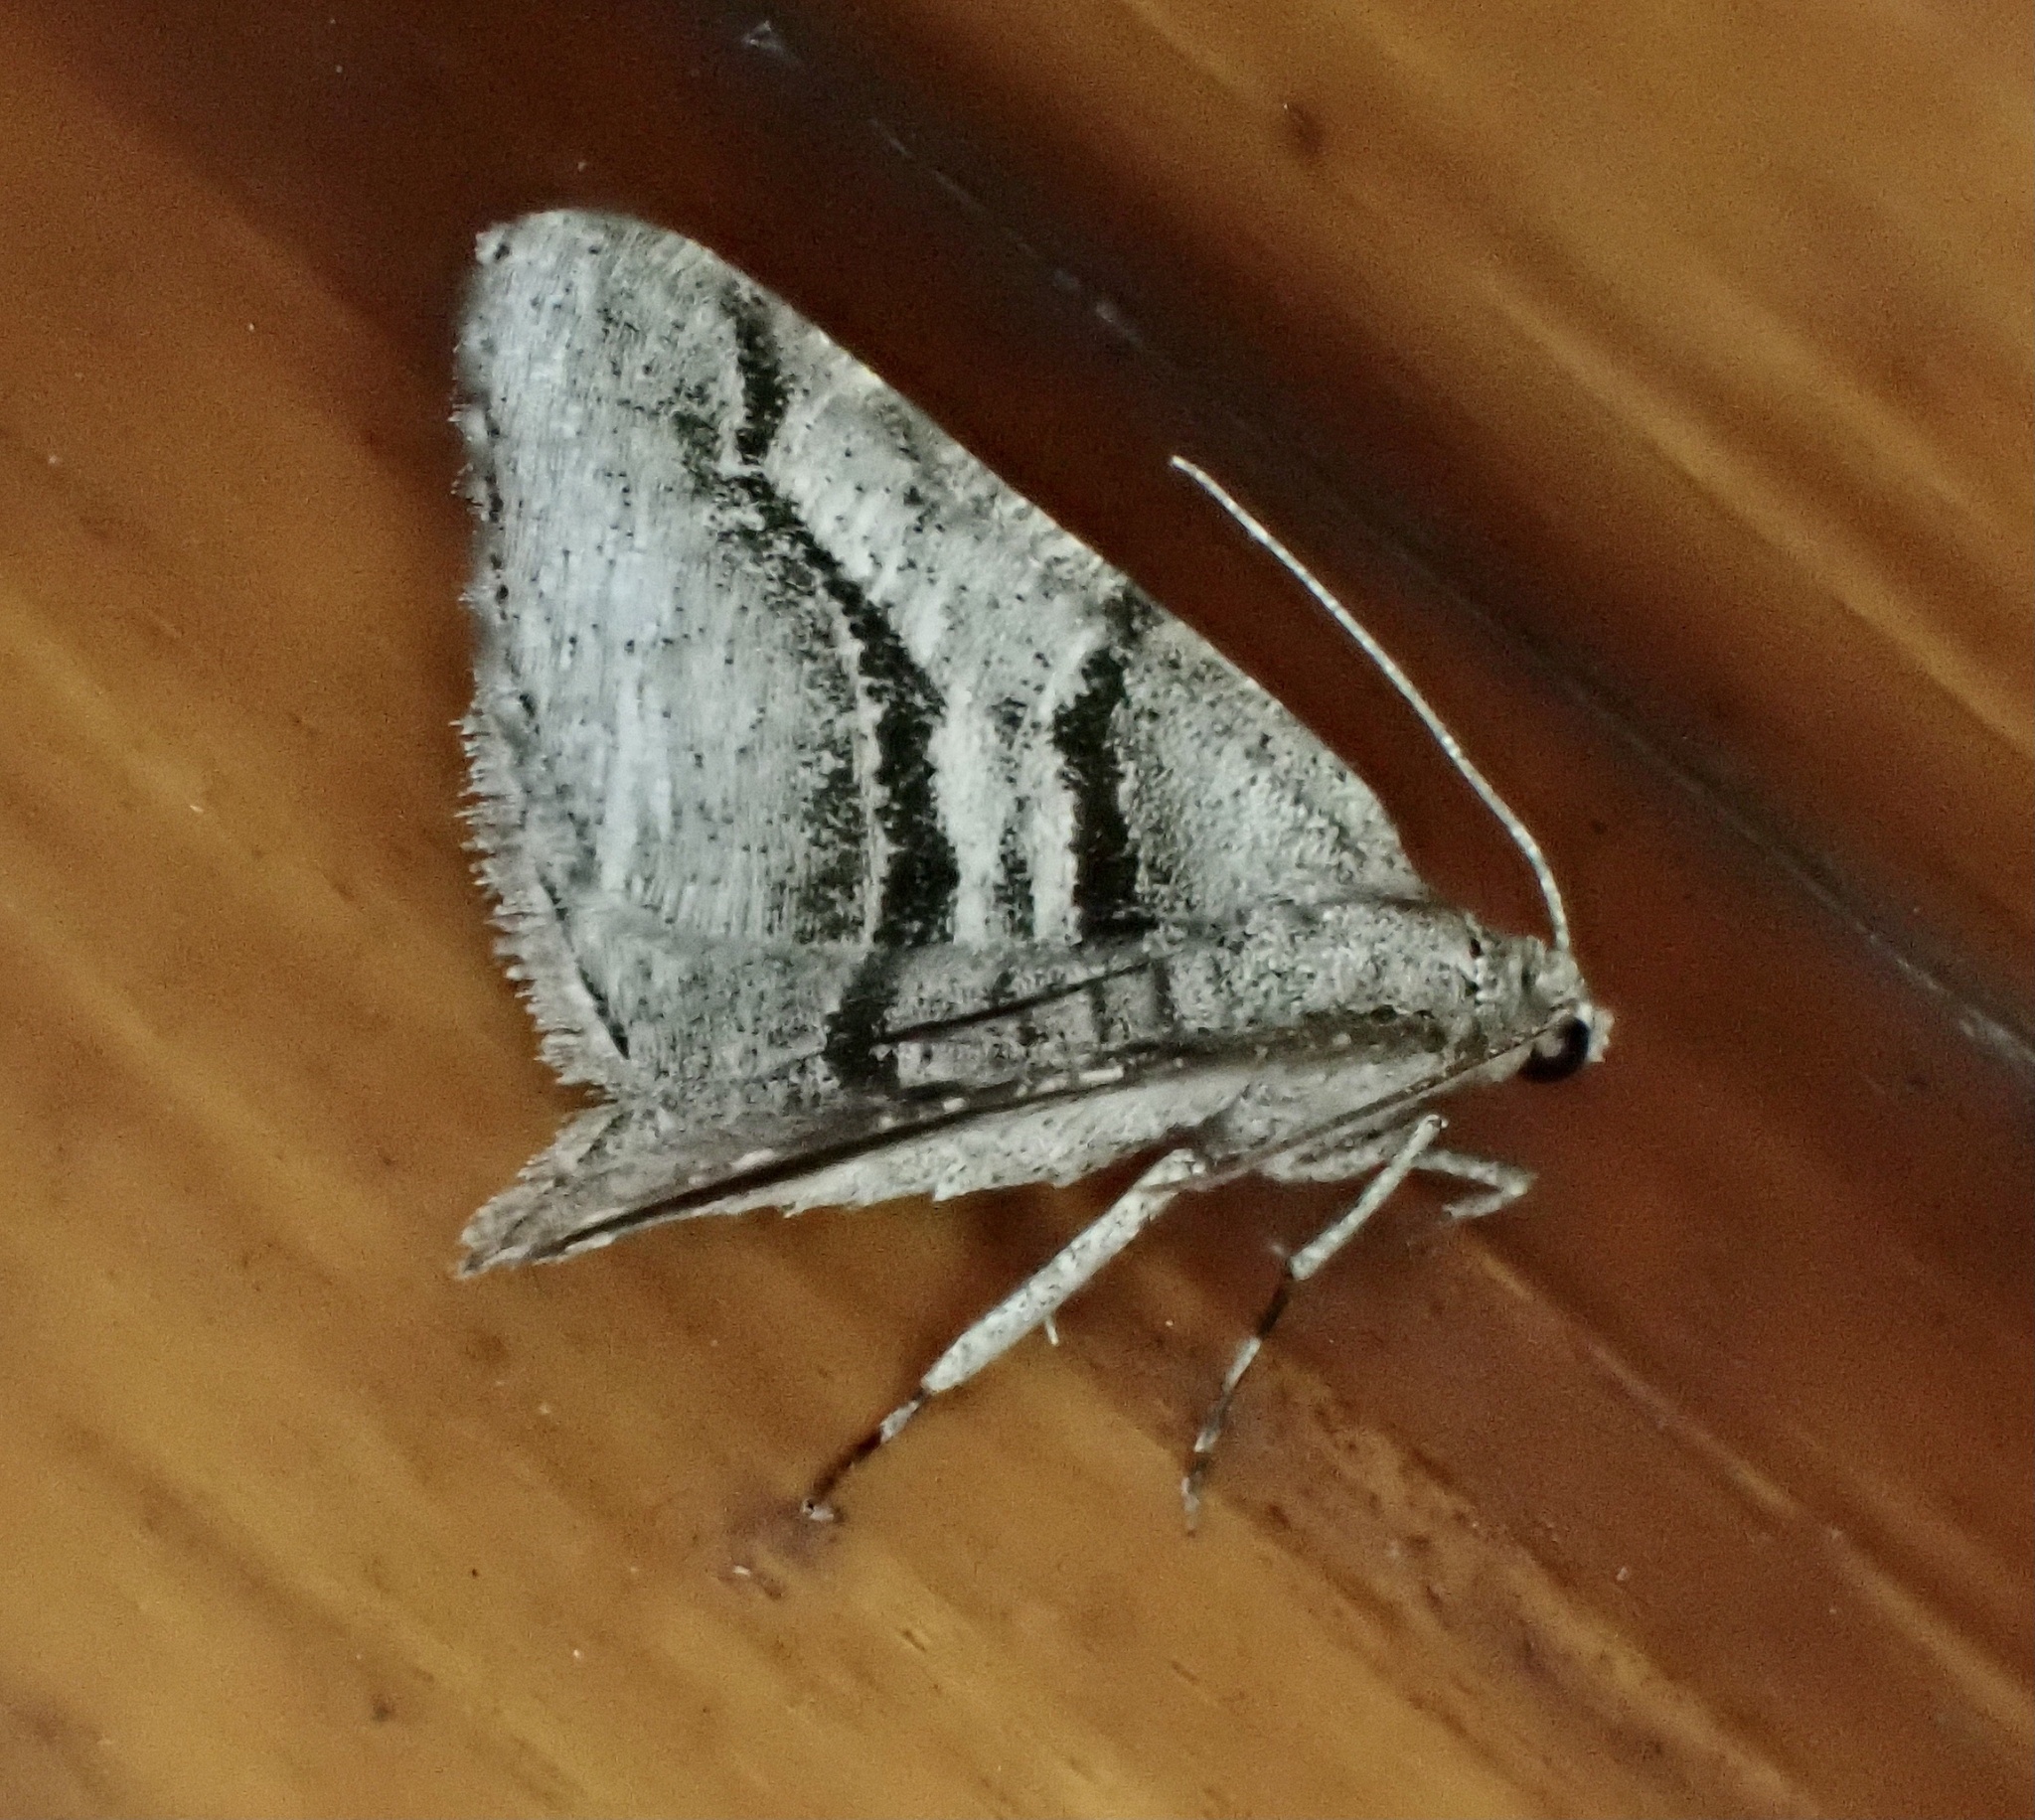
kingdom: Animalia
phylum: Arthropoda
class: Insecta
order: Lepidoptera
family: Geometridae
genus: Digrammia
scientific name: Digrammia continuata
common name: Curve-lined angle
